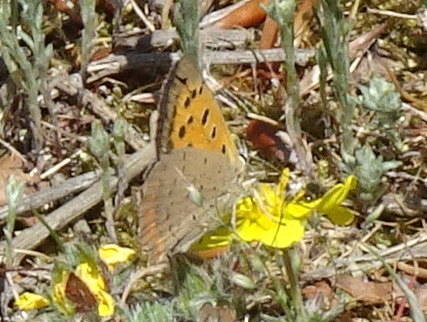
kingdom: Animalia
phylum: Arthropoda
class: Insecta
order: Lepidoptera
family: Lycaenidae
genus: Lycaena
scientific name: Lycaena phlaeas
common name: Small copper
